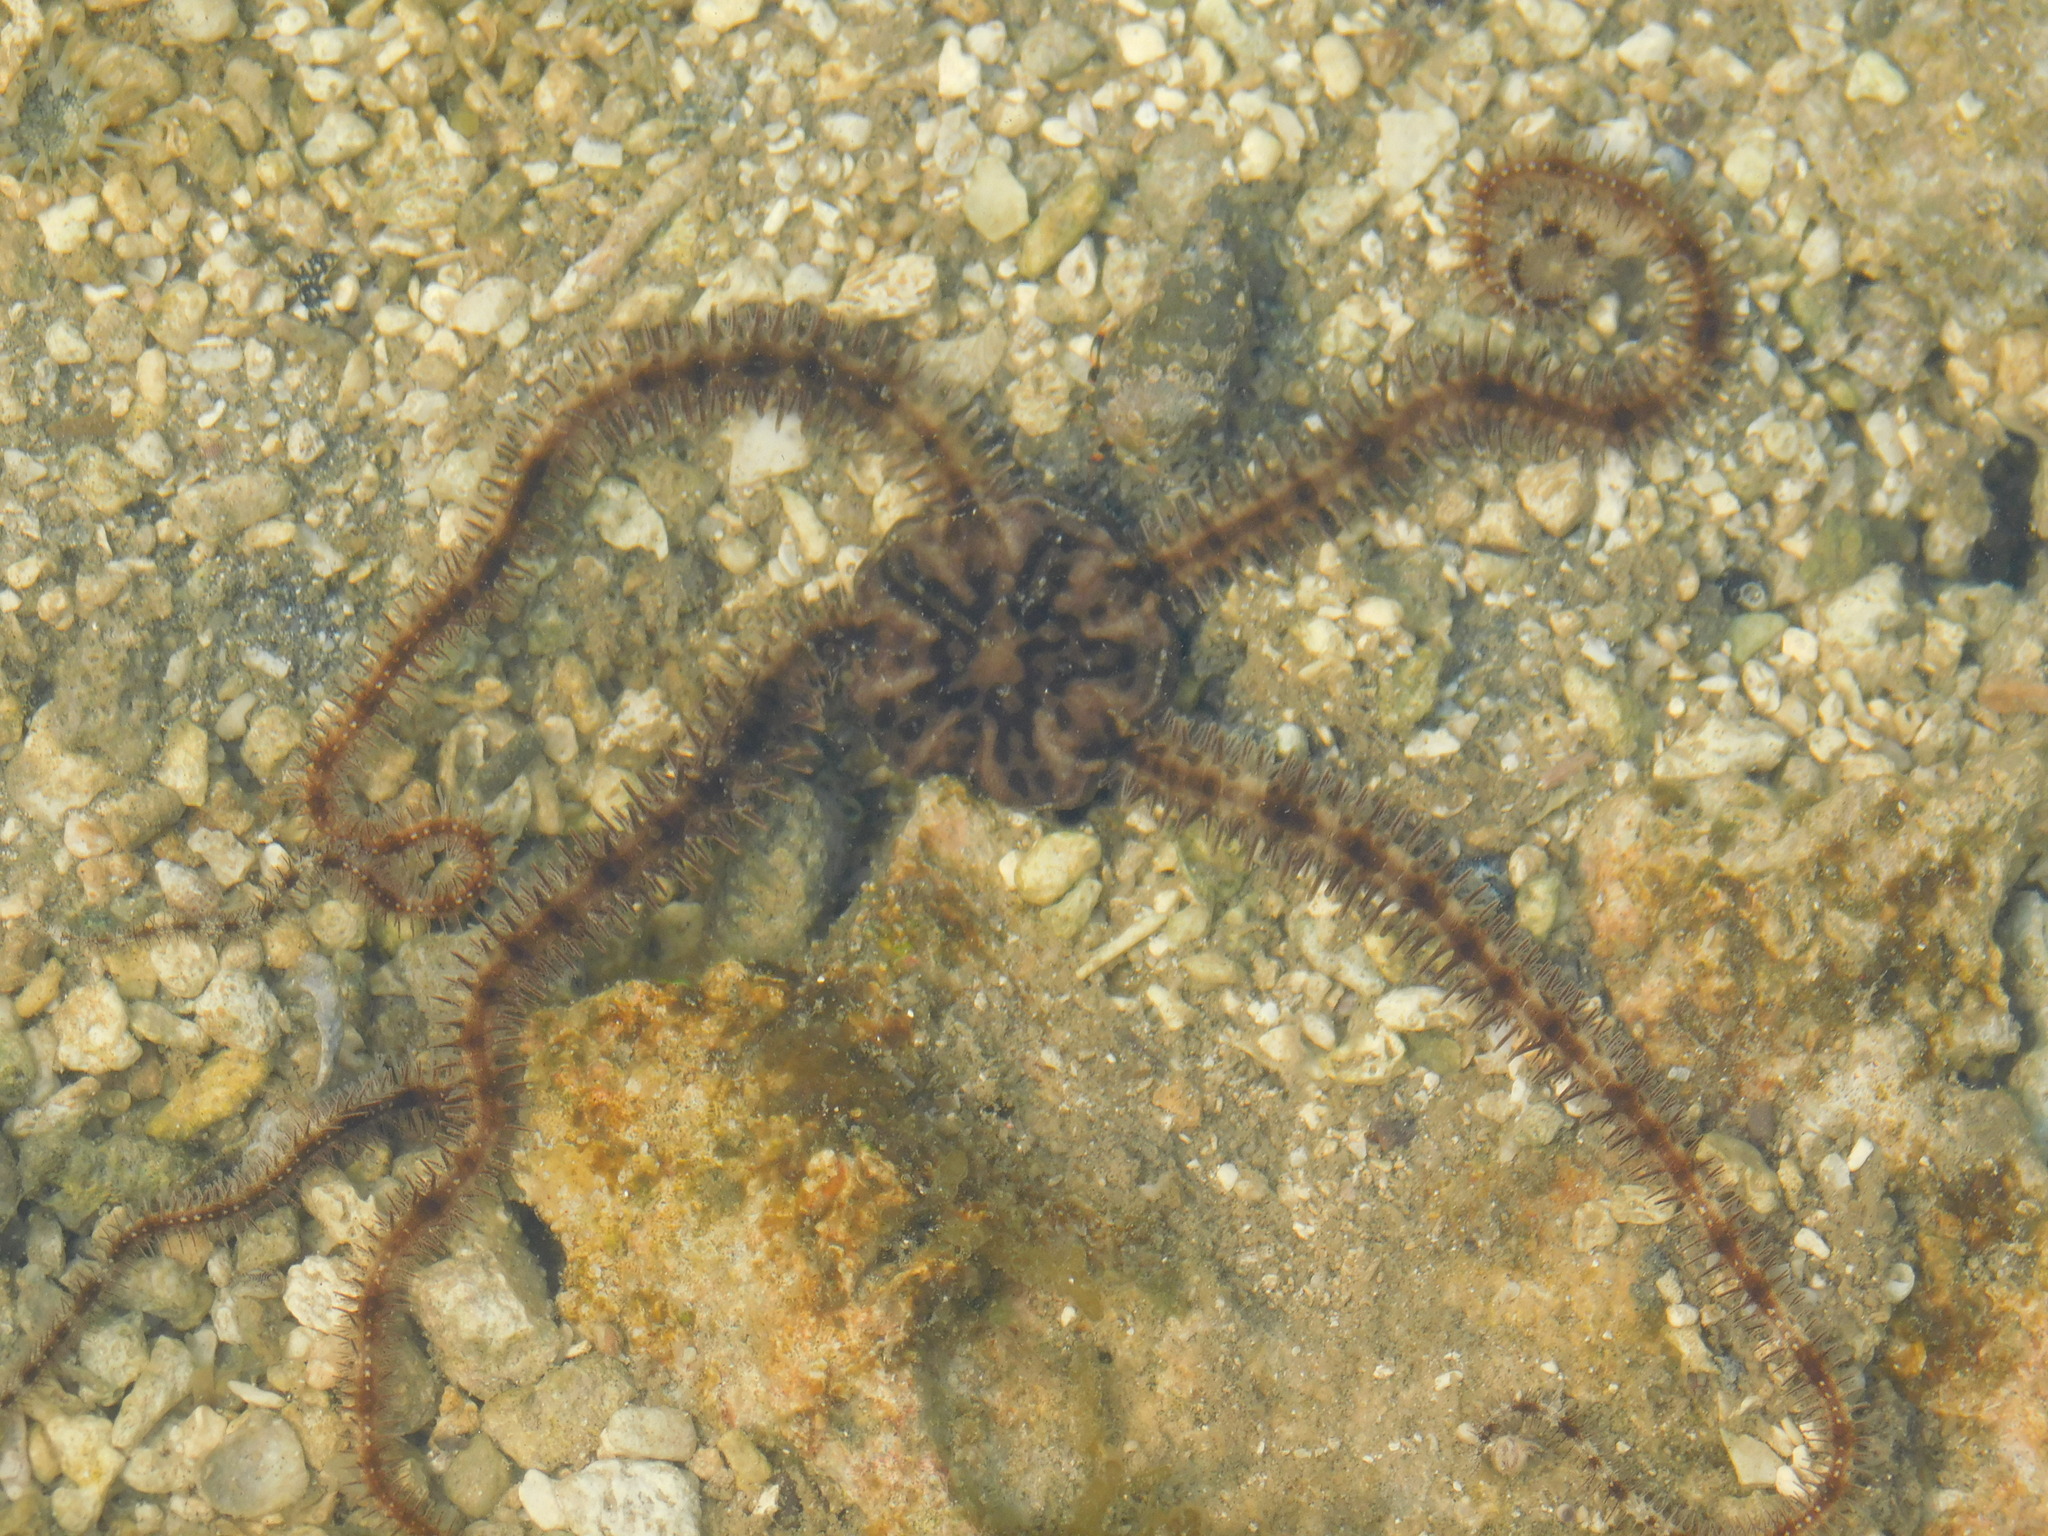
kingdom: Animalia
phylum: Echinodermata
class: Ophiuroidea
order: Ophiacanthida
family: Ophiocomidae
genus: Ophiocoma
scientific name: Ophiocoma scolopendrina
